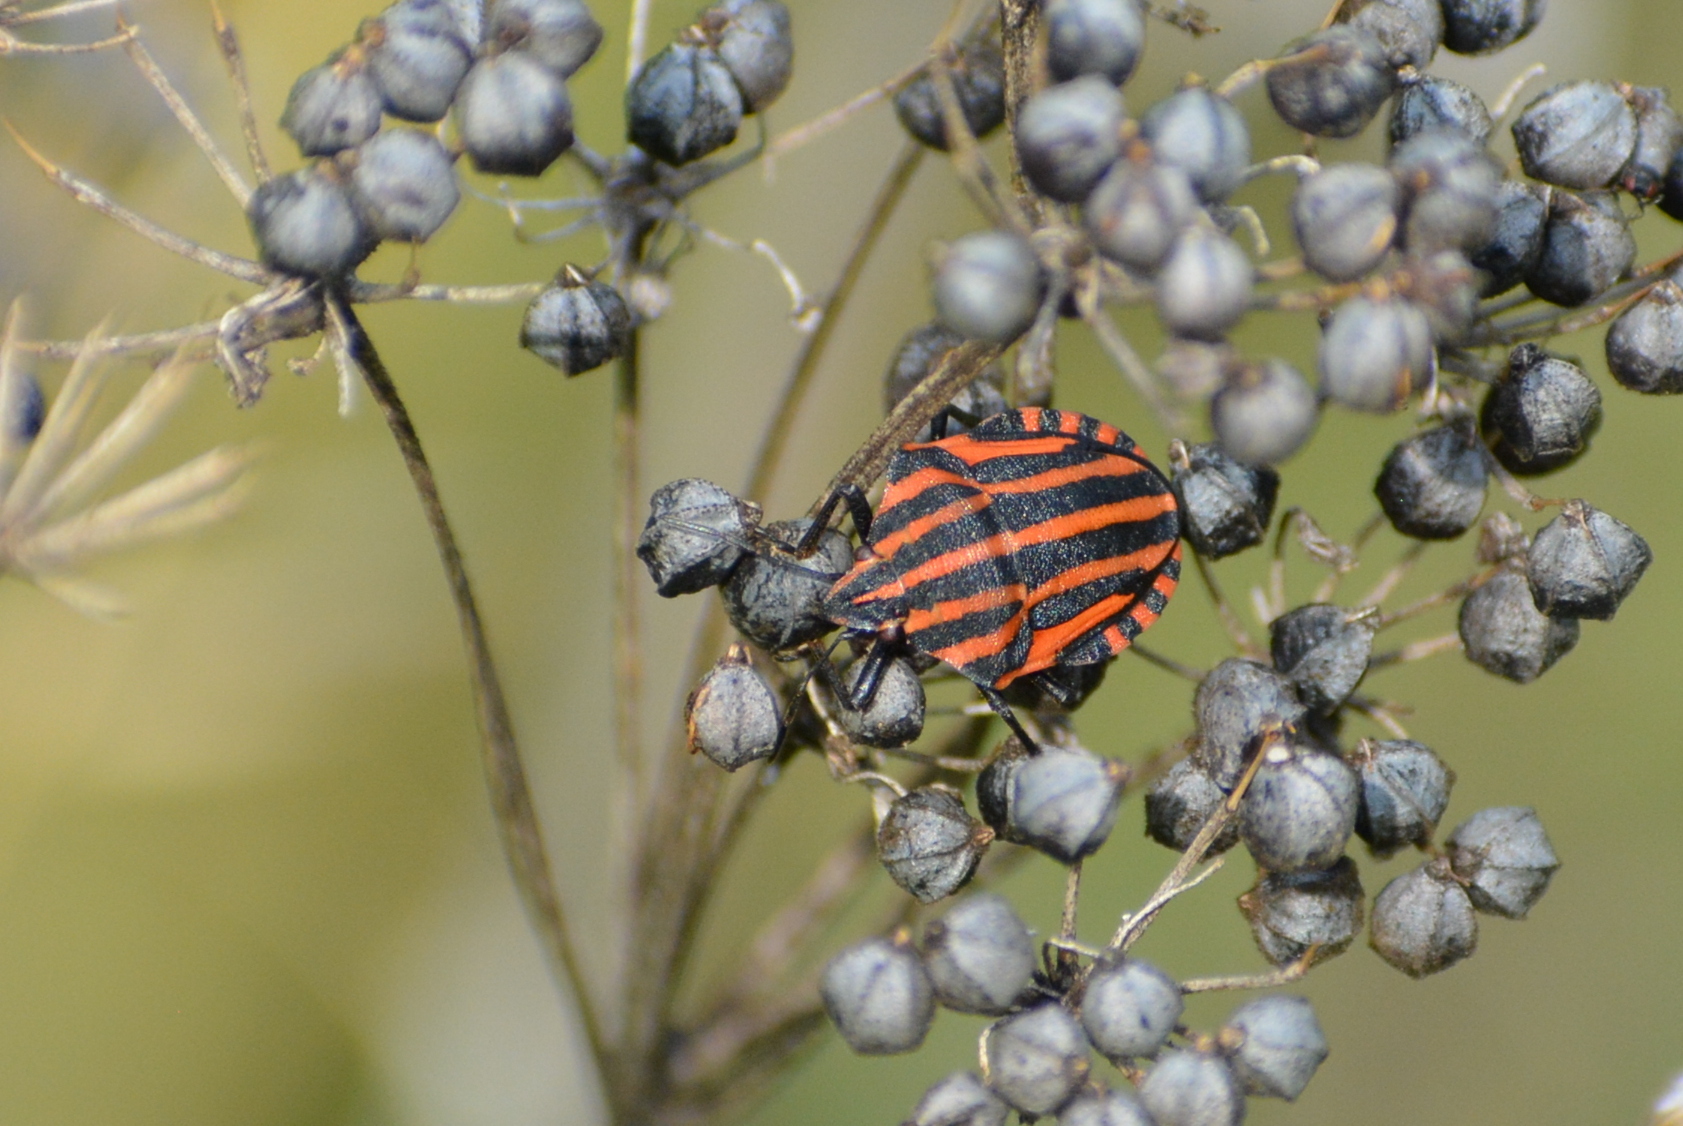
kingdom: Animalia
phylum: Arthropoda
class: Insecta
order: Hemiptera
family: Pentatomidae
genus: Graphosoma
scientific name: Graphosoma italicum
